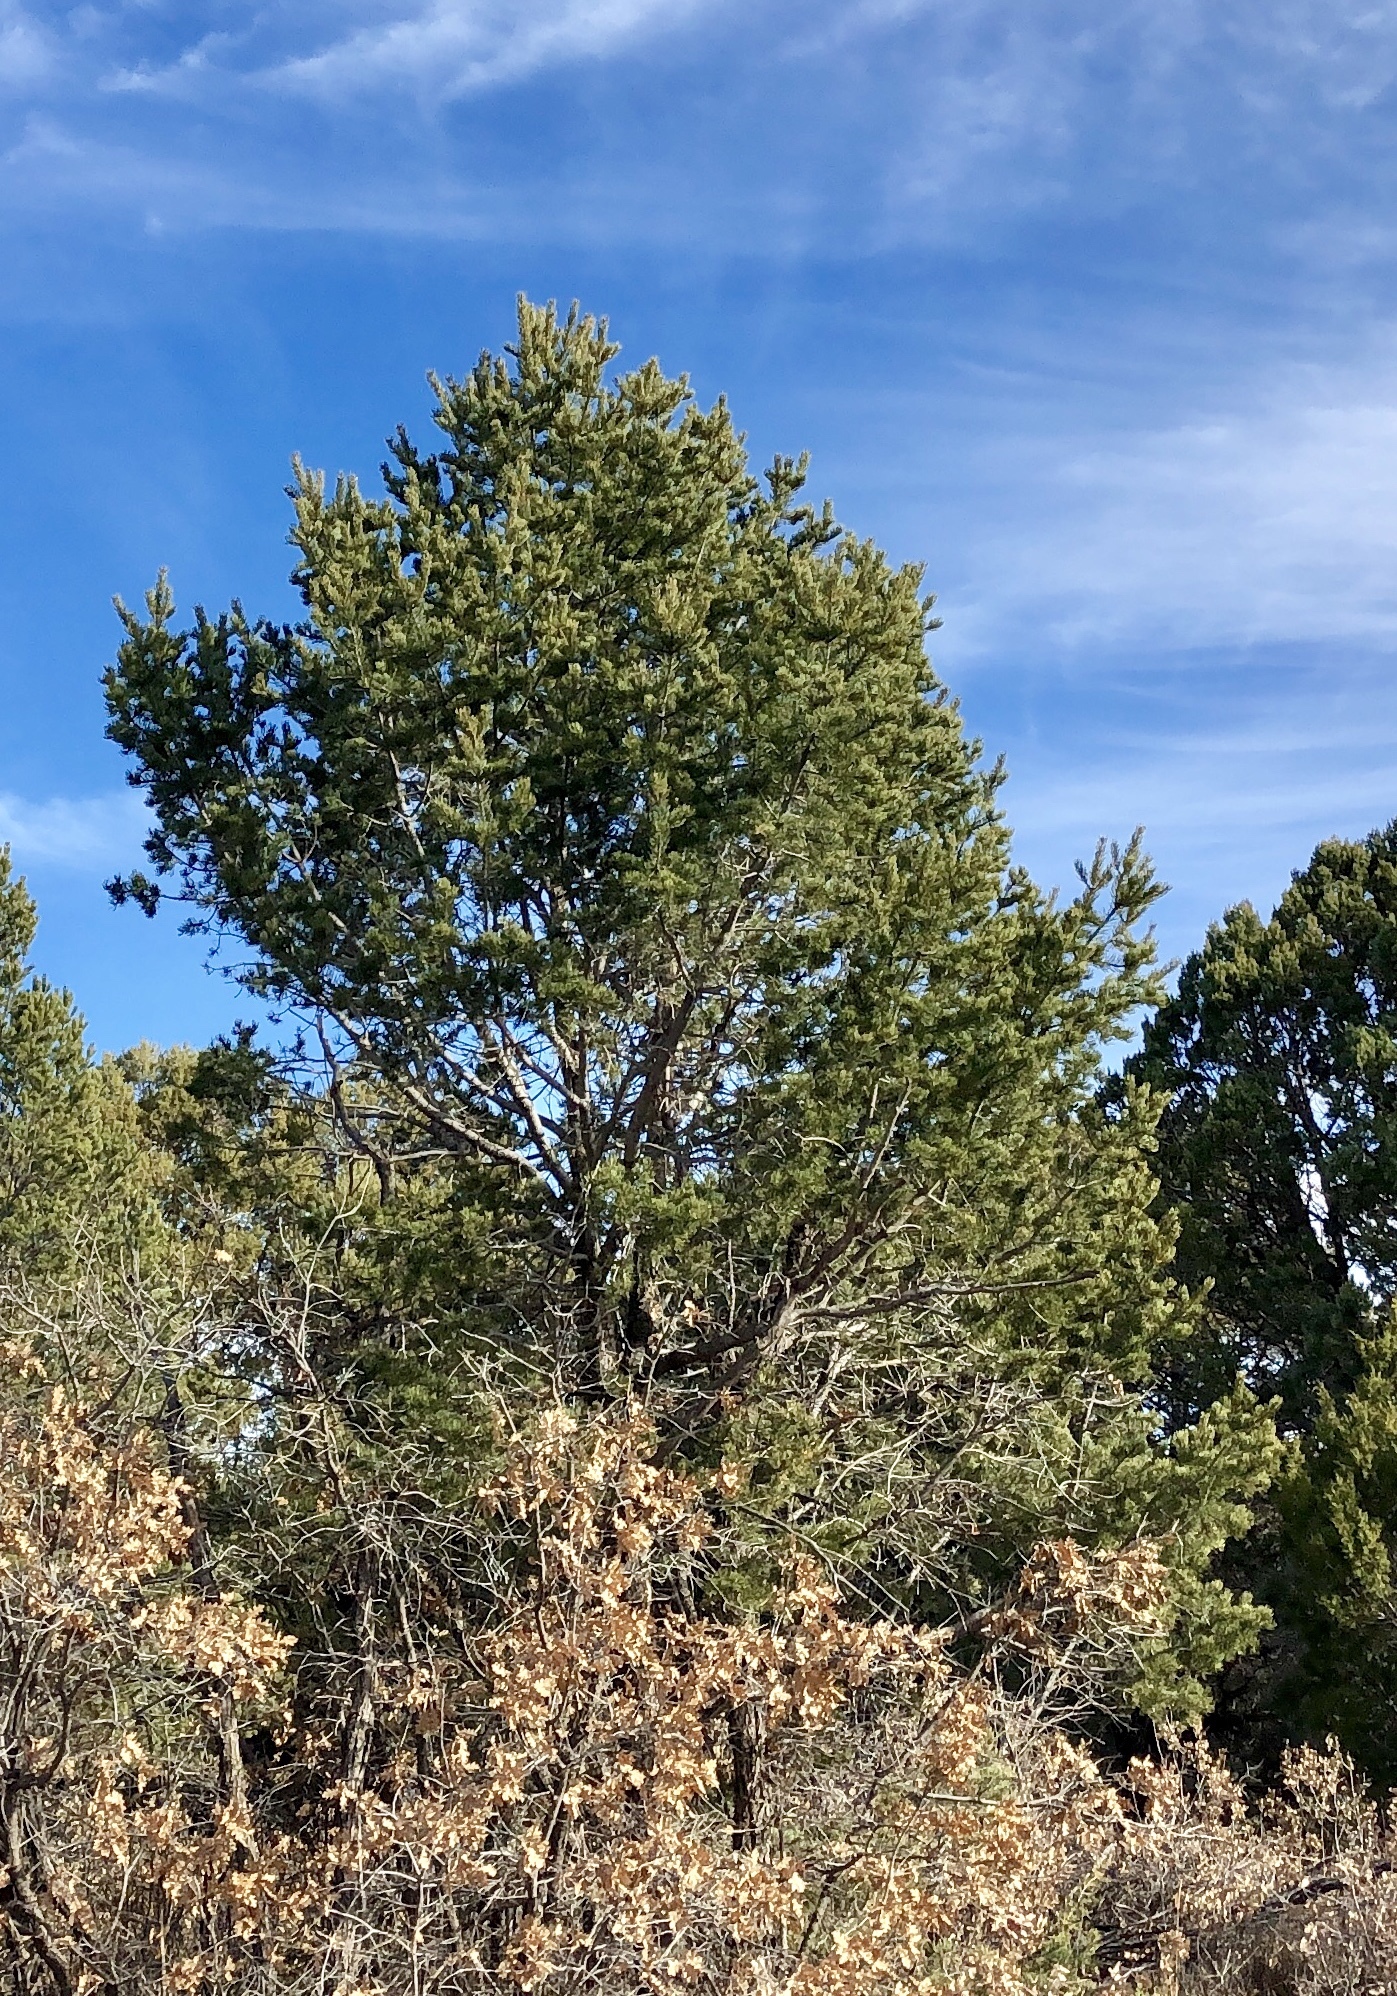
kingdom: Plantae
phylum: Tracheophyta
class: Pinopsida
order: Pinales
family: Pinaceae
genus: Pinus
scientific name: Pinus edulis
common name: Colorado pinyon
